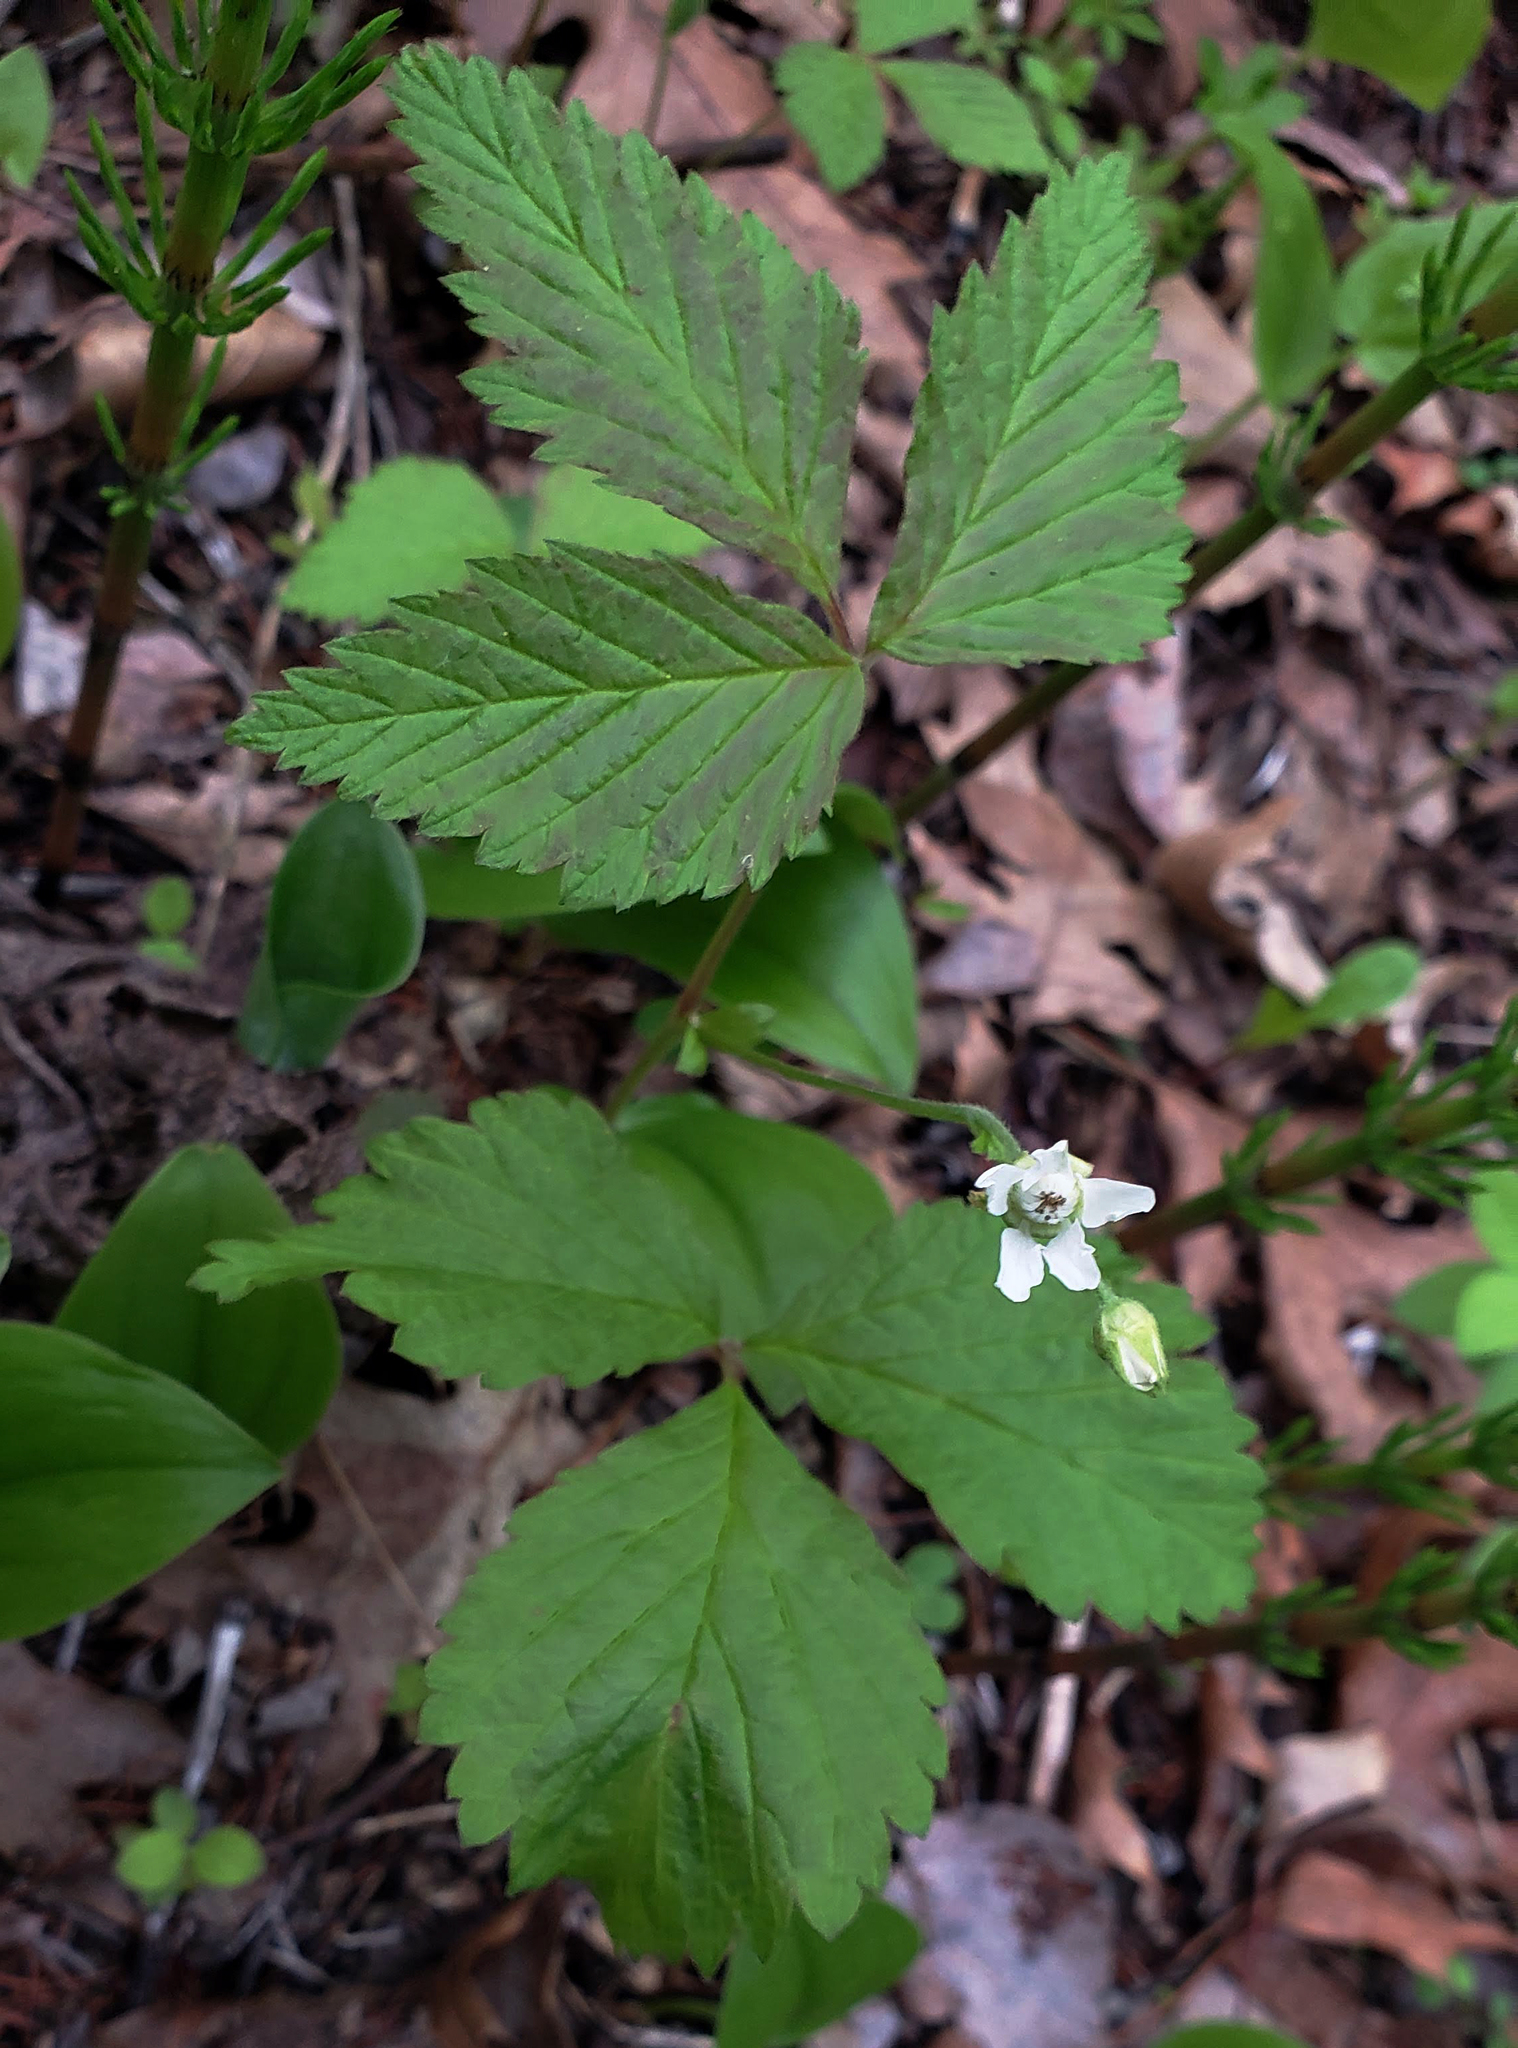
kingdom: Plantae
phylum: Tracheophyta
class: Magnoliopsida
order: Rosales
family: Rosaceae
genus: Rubus
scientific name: Rubus pubescens
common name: Dwarf raspberry
